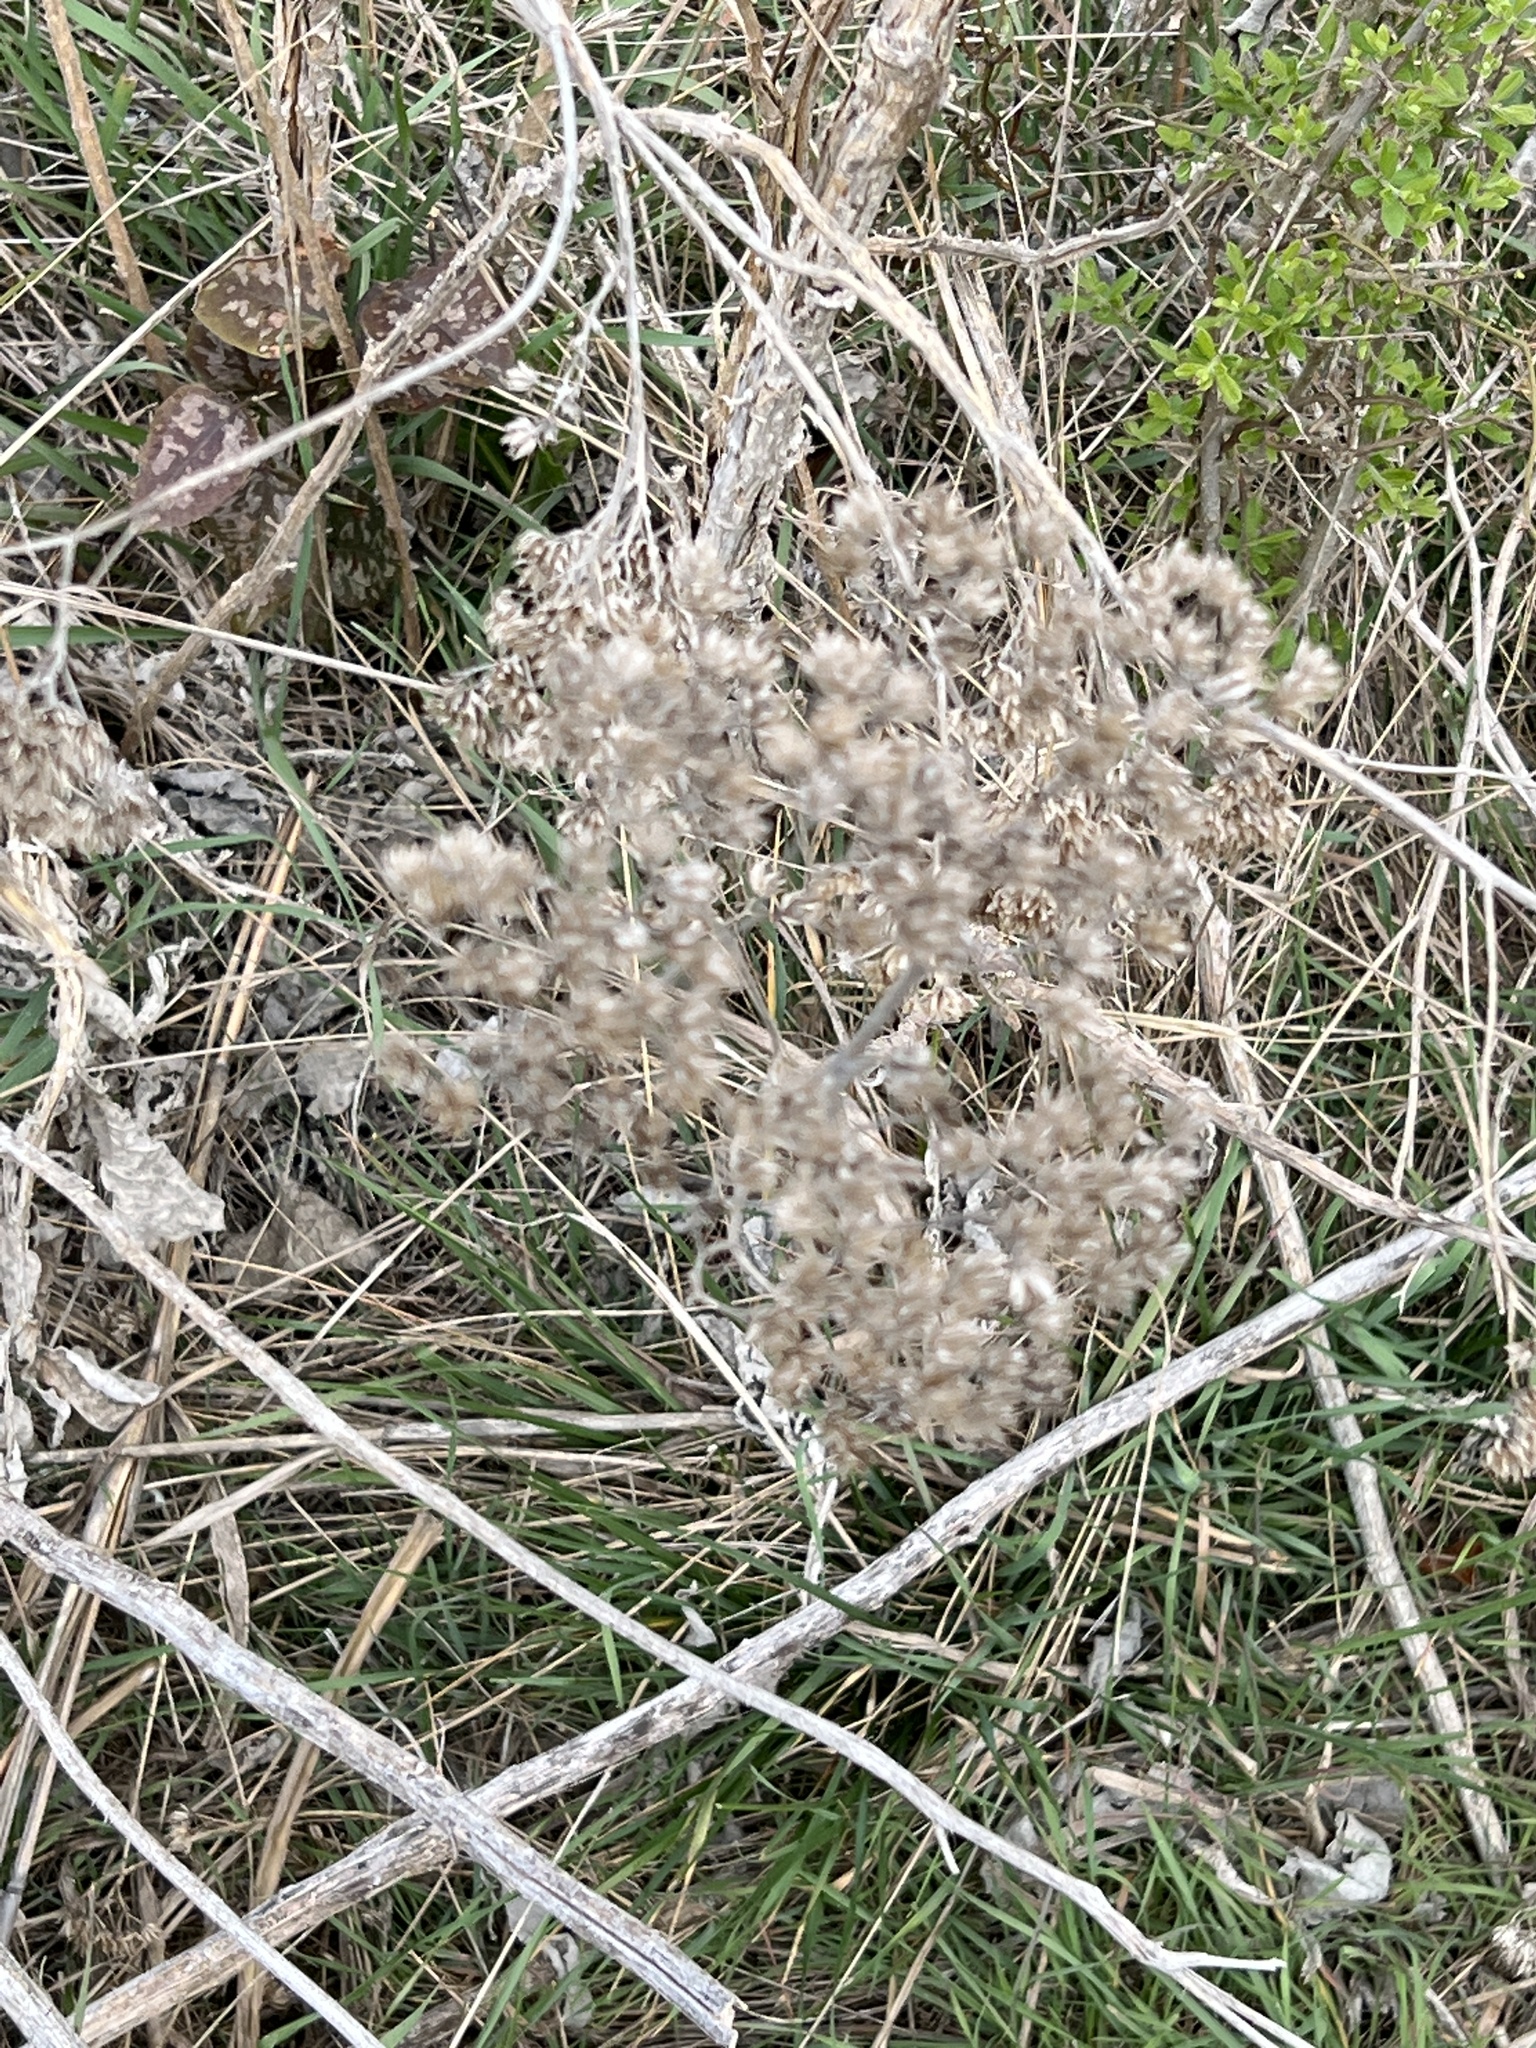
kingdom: Plantae
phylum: Tracheophyta
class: Magnoliopsida
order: Asterales
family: Asteraceae
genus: Verbesina
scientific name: Verbesina virginica
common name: Frostweed
